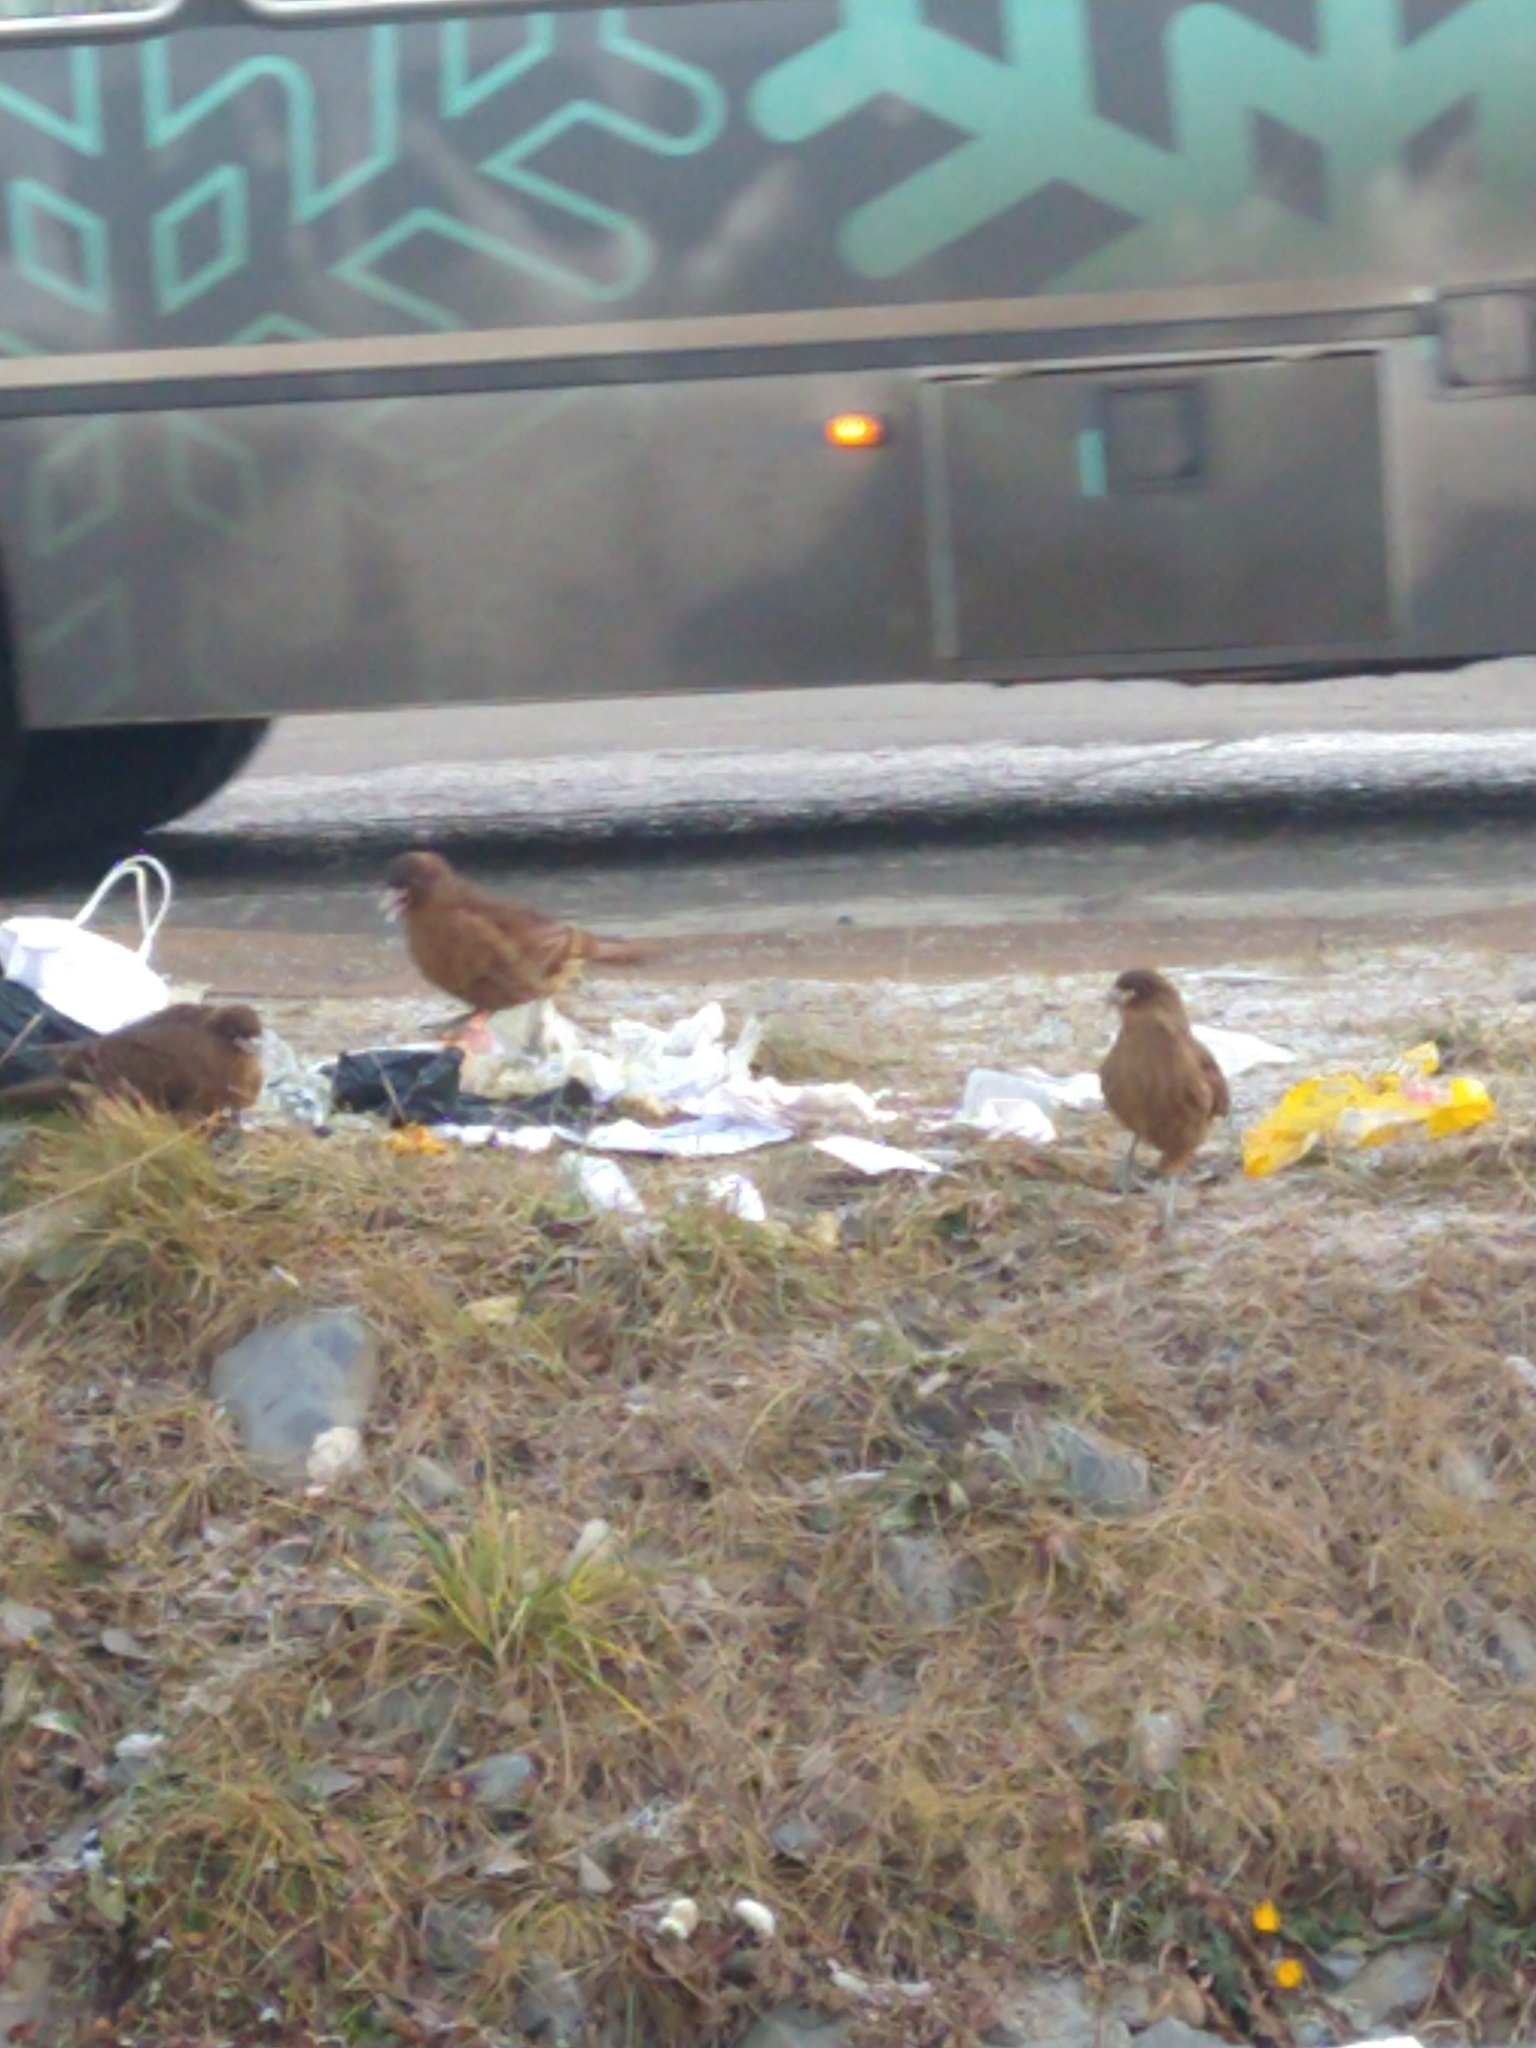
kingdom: Animalia
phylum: Chordata
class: Aves
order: Falconiformes
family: Falconidae
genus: Daptrius
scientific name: Daptrius
